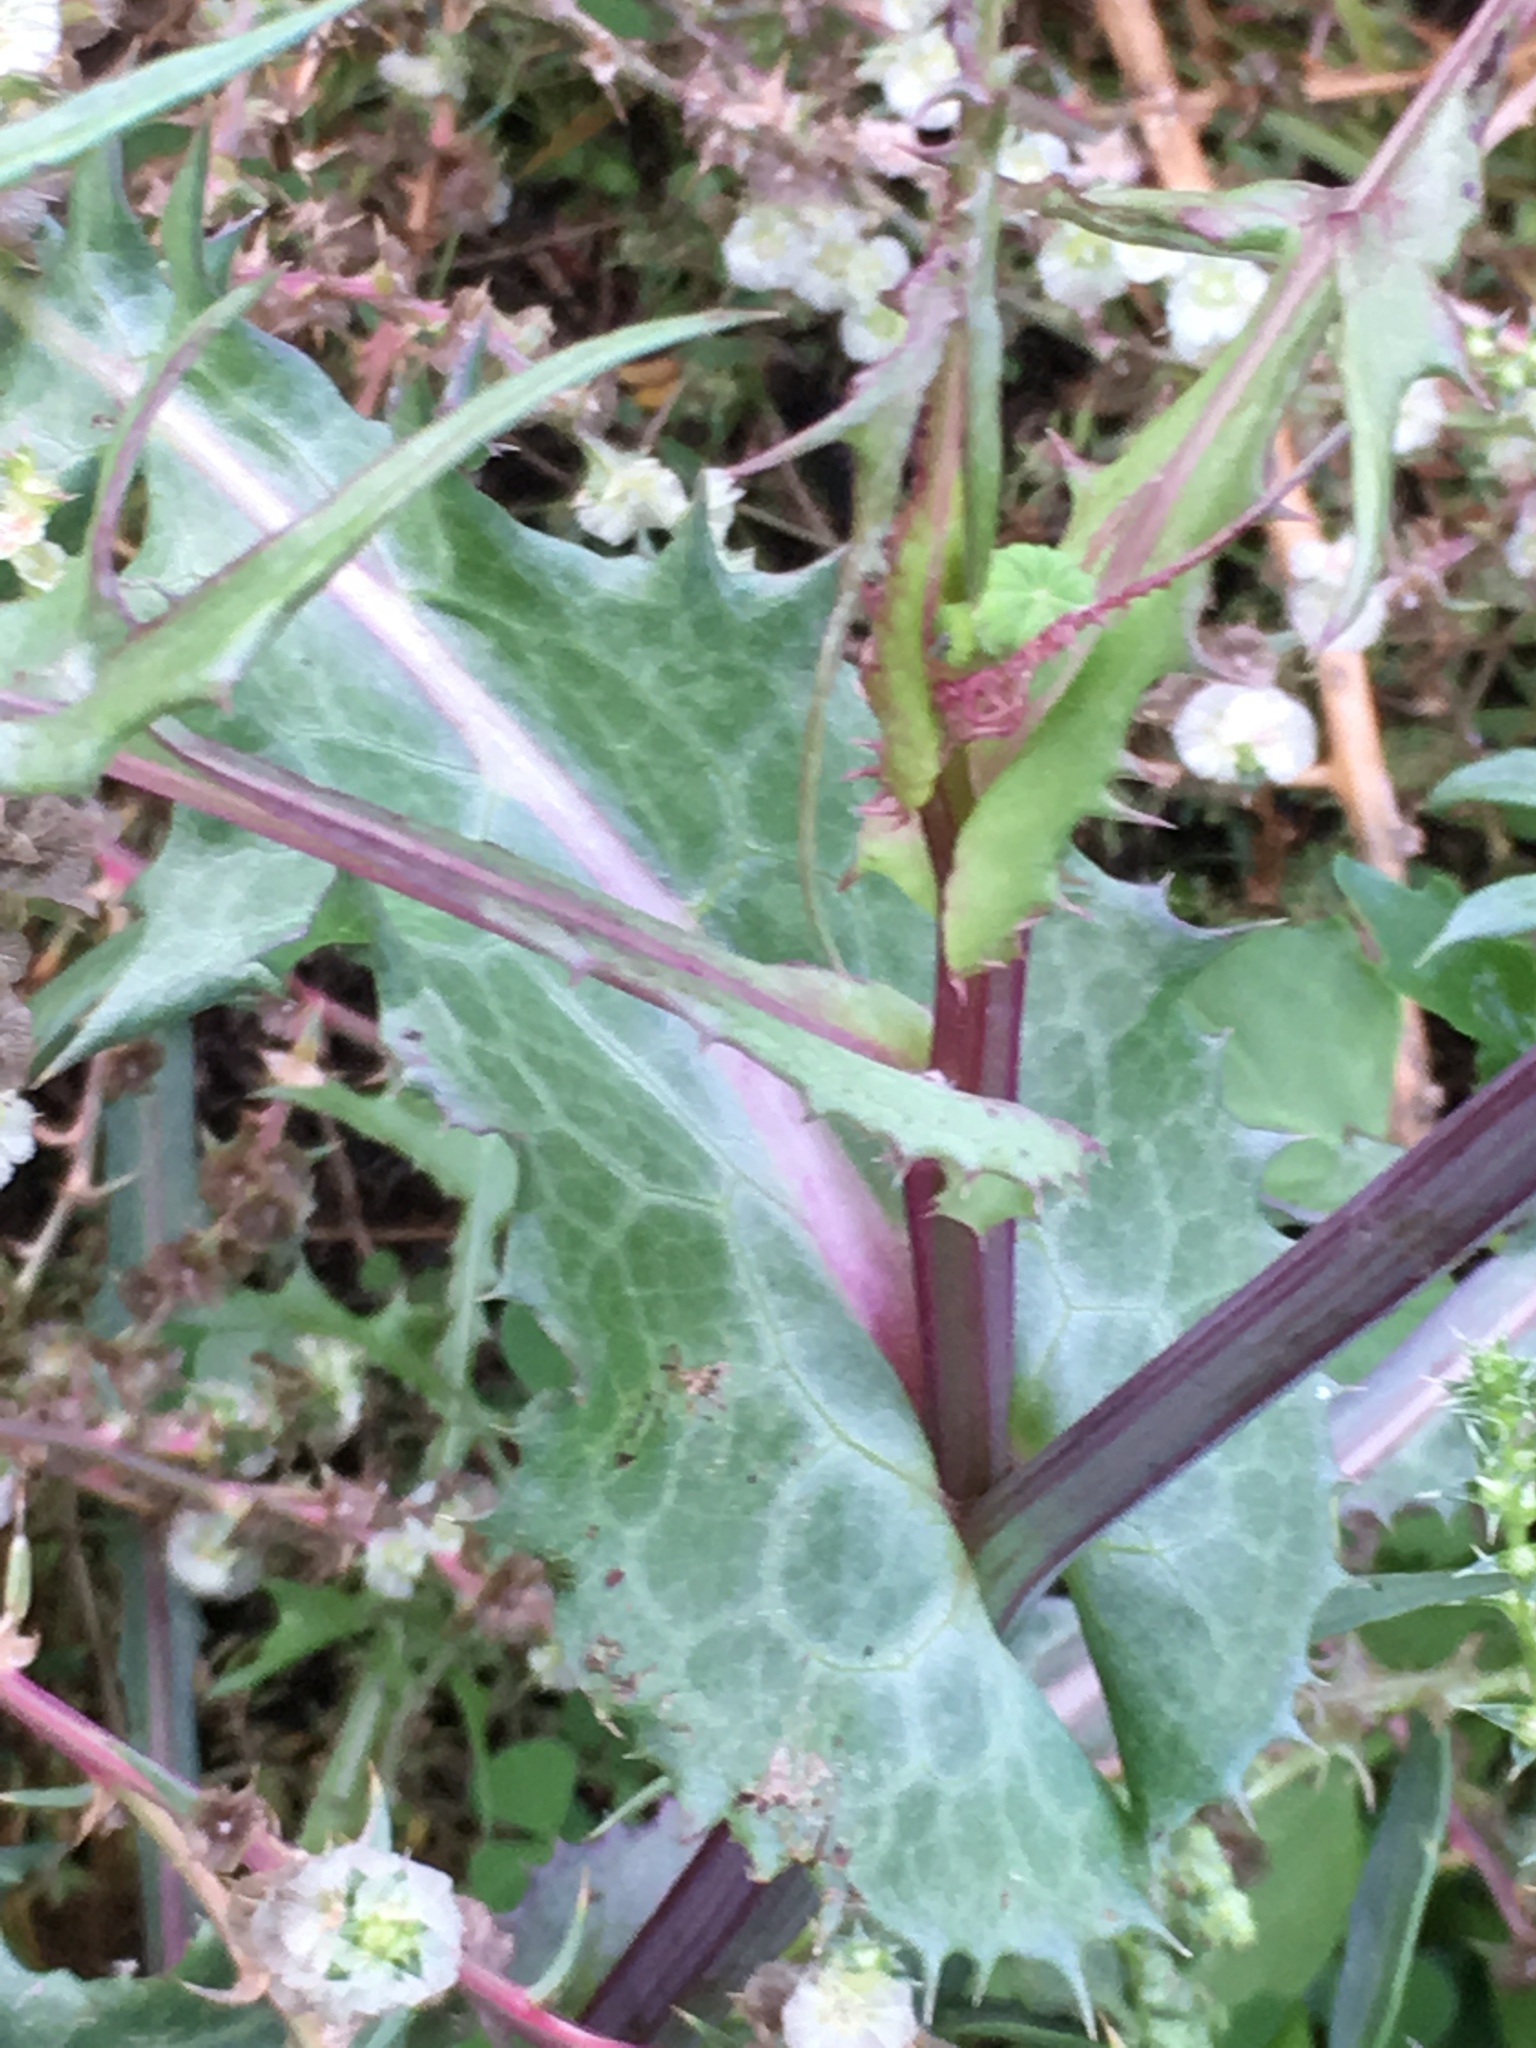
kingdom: Plantae
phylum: Tracheophyta
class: Magnoliopsida
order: Asterales
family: Asteraceae
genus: Sonchus
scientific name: Sonchus oleraceus
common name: Common sowthistle
